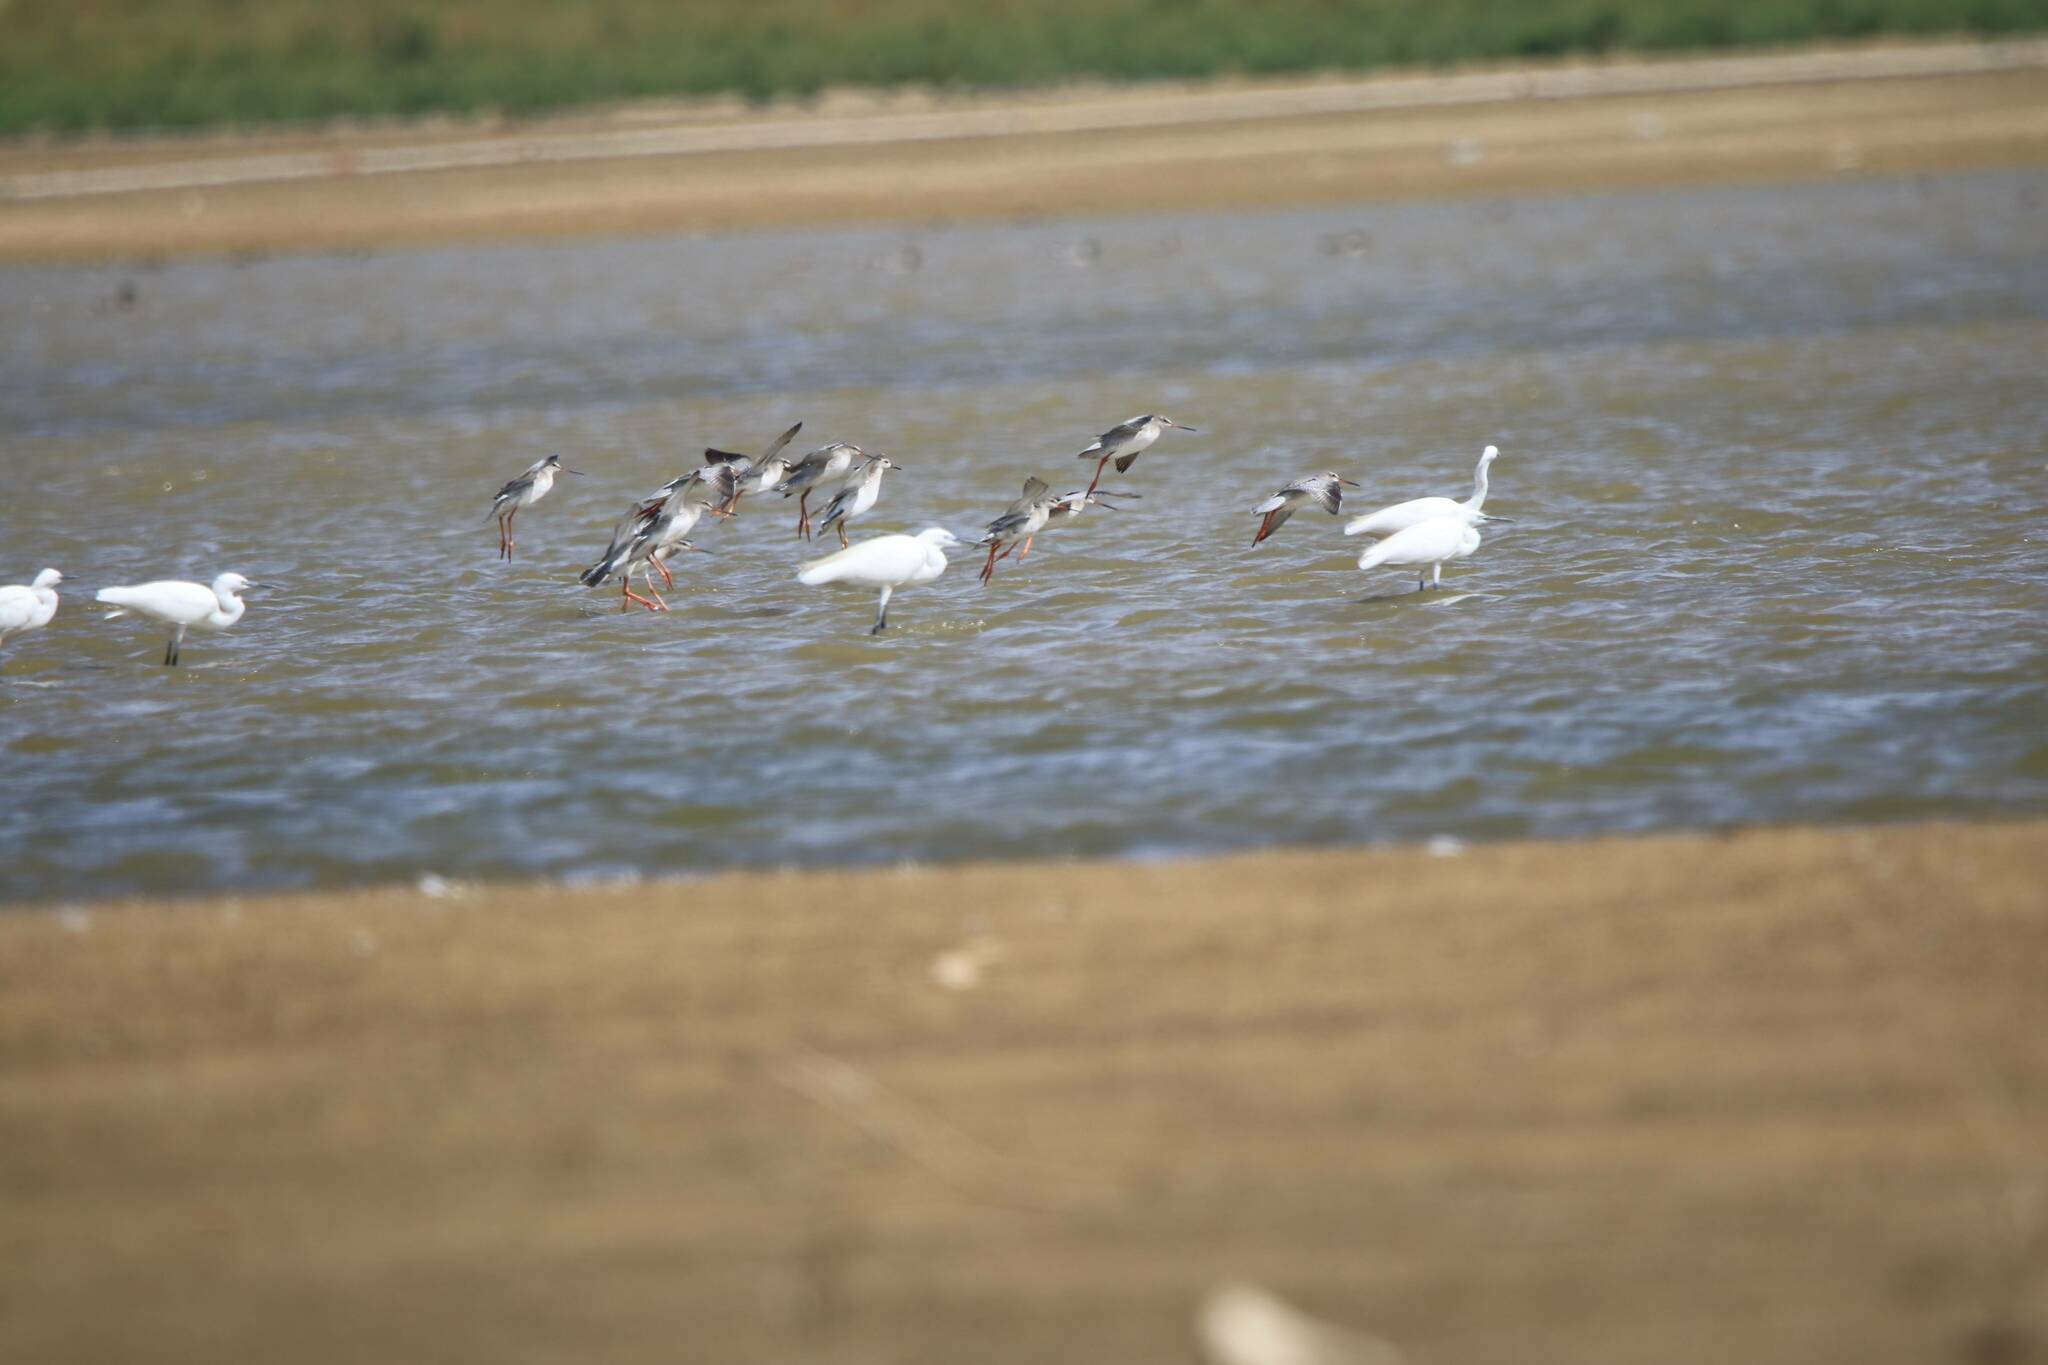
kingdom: Animalia
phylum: Chordata
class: Aves
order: Pelecaniformes
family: Ardeidae
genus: Egretta
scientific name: Egretta garzetta
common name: Little egret
